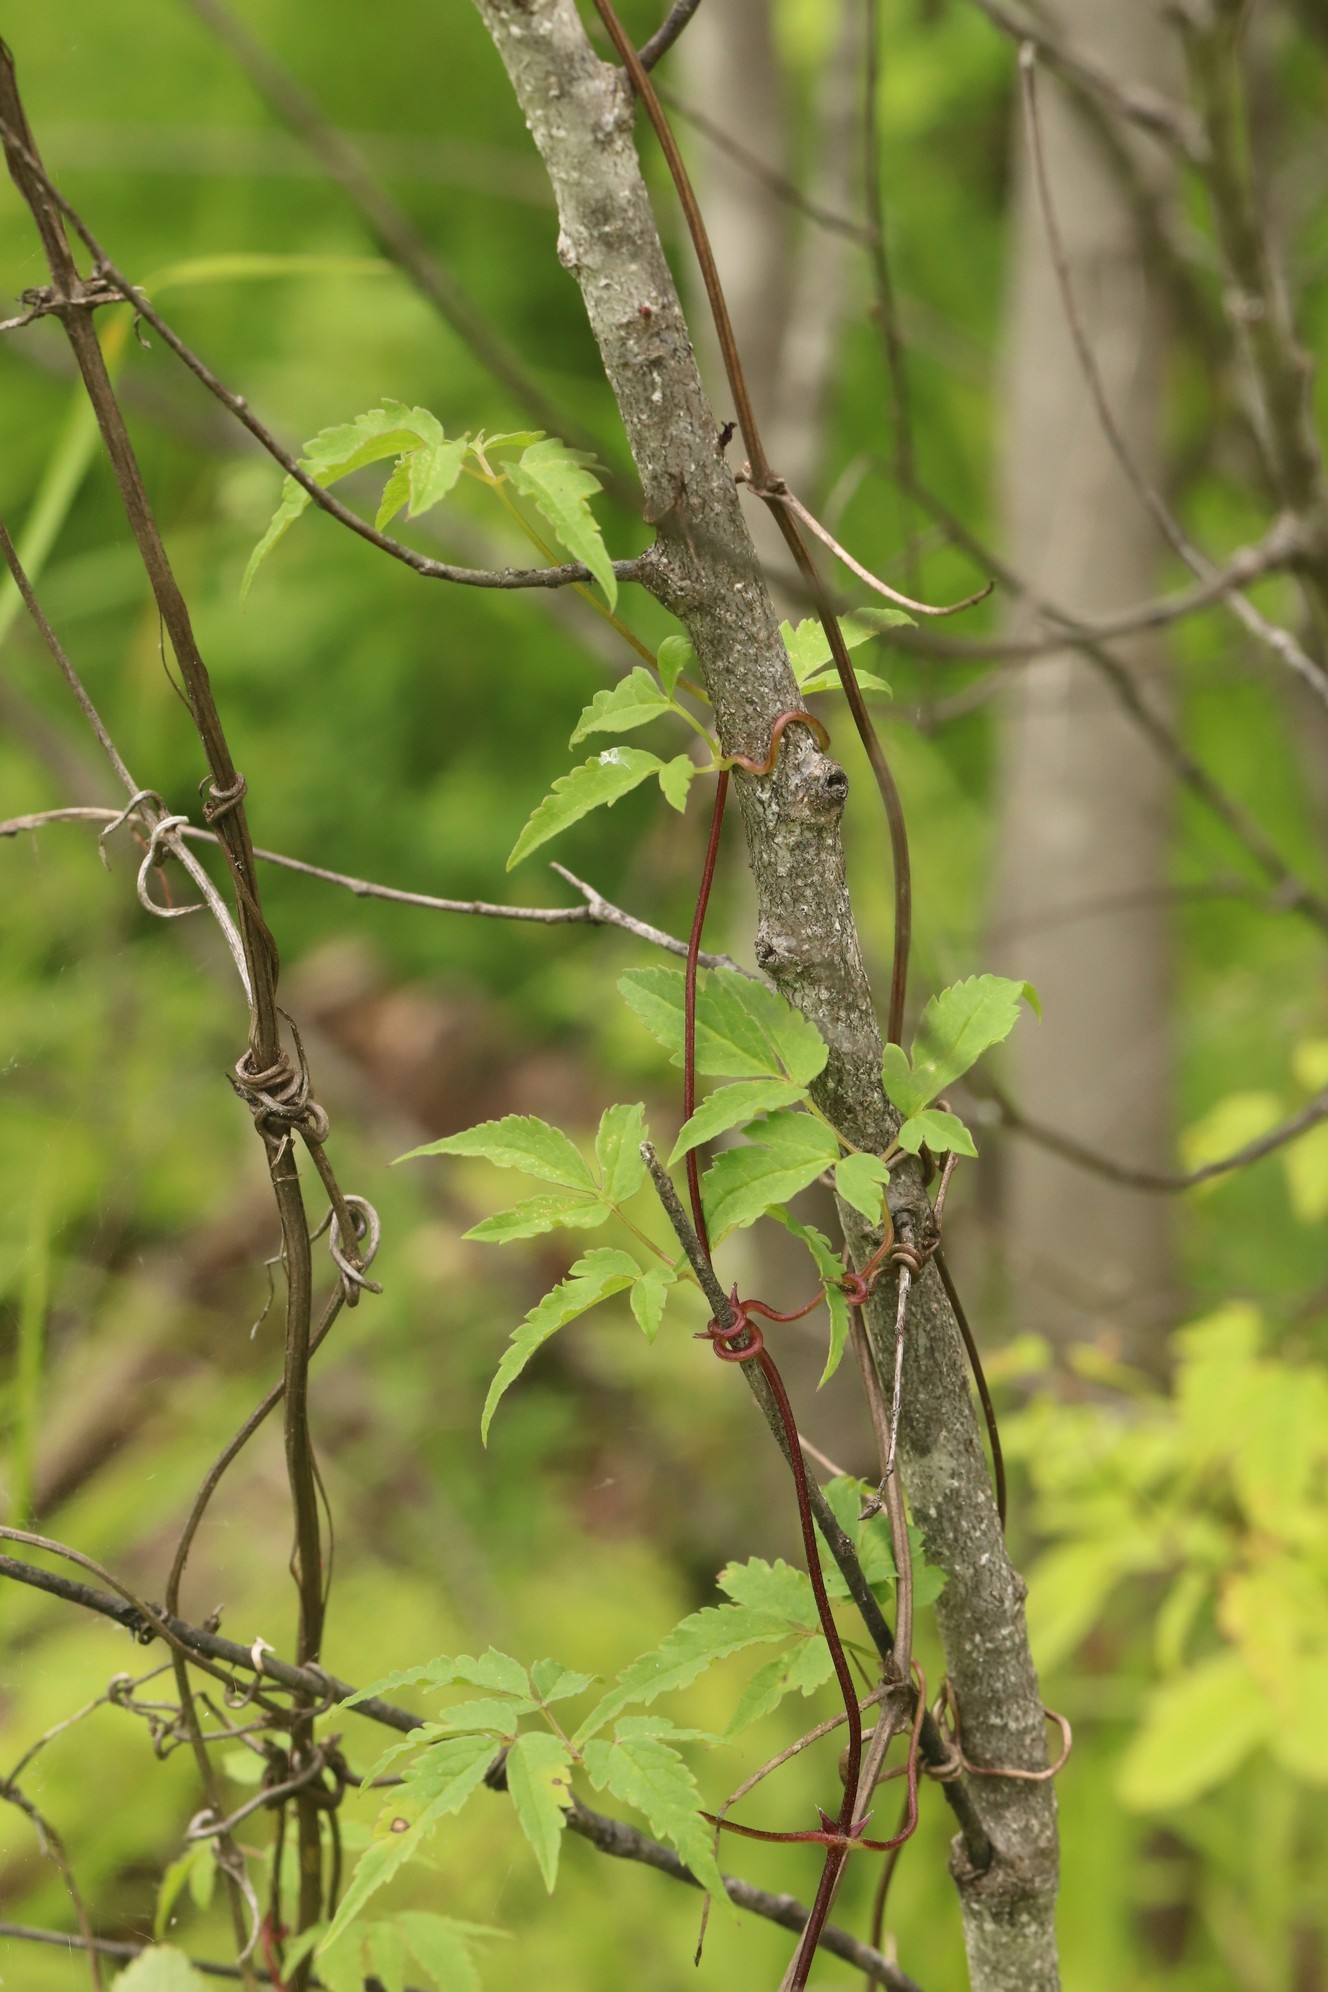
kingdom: Plantae
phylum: Tracheophyta
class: Magnoliopsida
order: Ranunculales
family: Ranunculaceae
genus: Clematis
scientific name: Clematis sibirica
